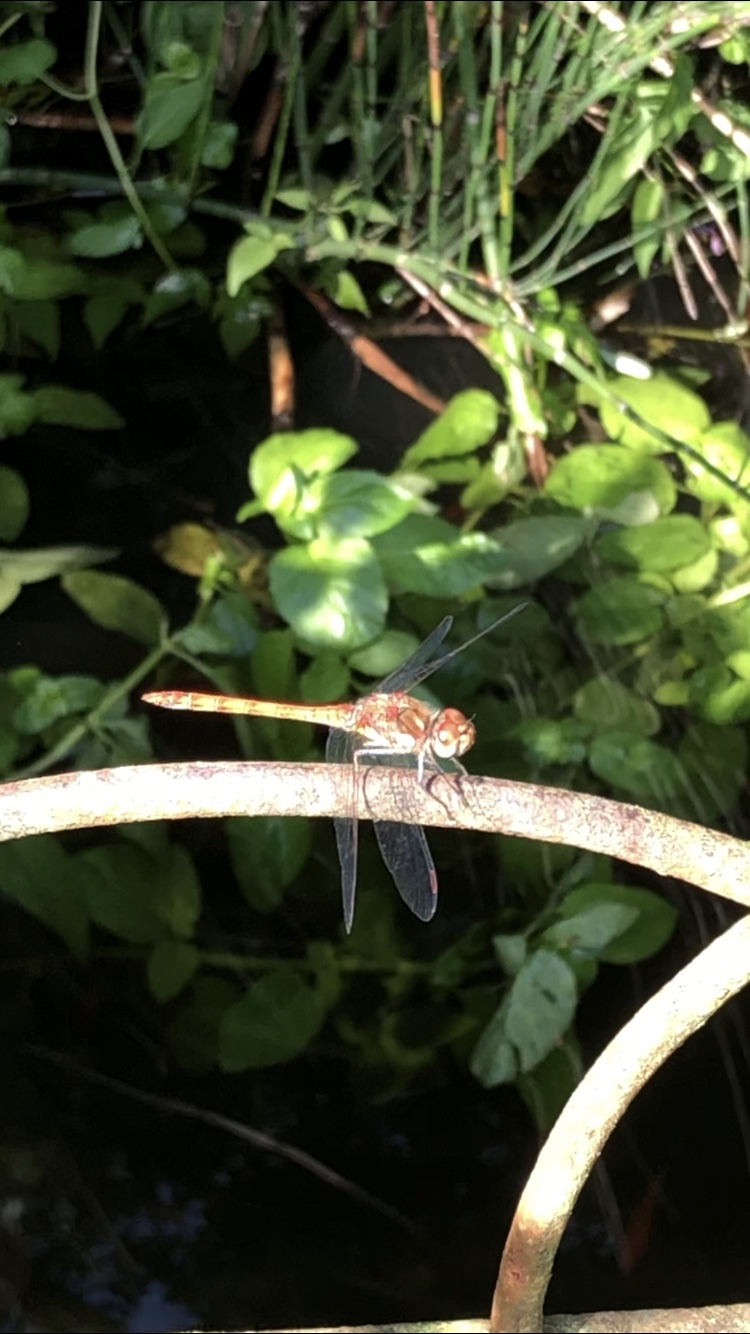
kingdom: Animalia
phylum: Arthropoda
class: Insecta
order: Odonata
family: Libellulidae
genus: Sympetrum
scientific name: Sympetrum striolatum
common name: Common darter
